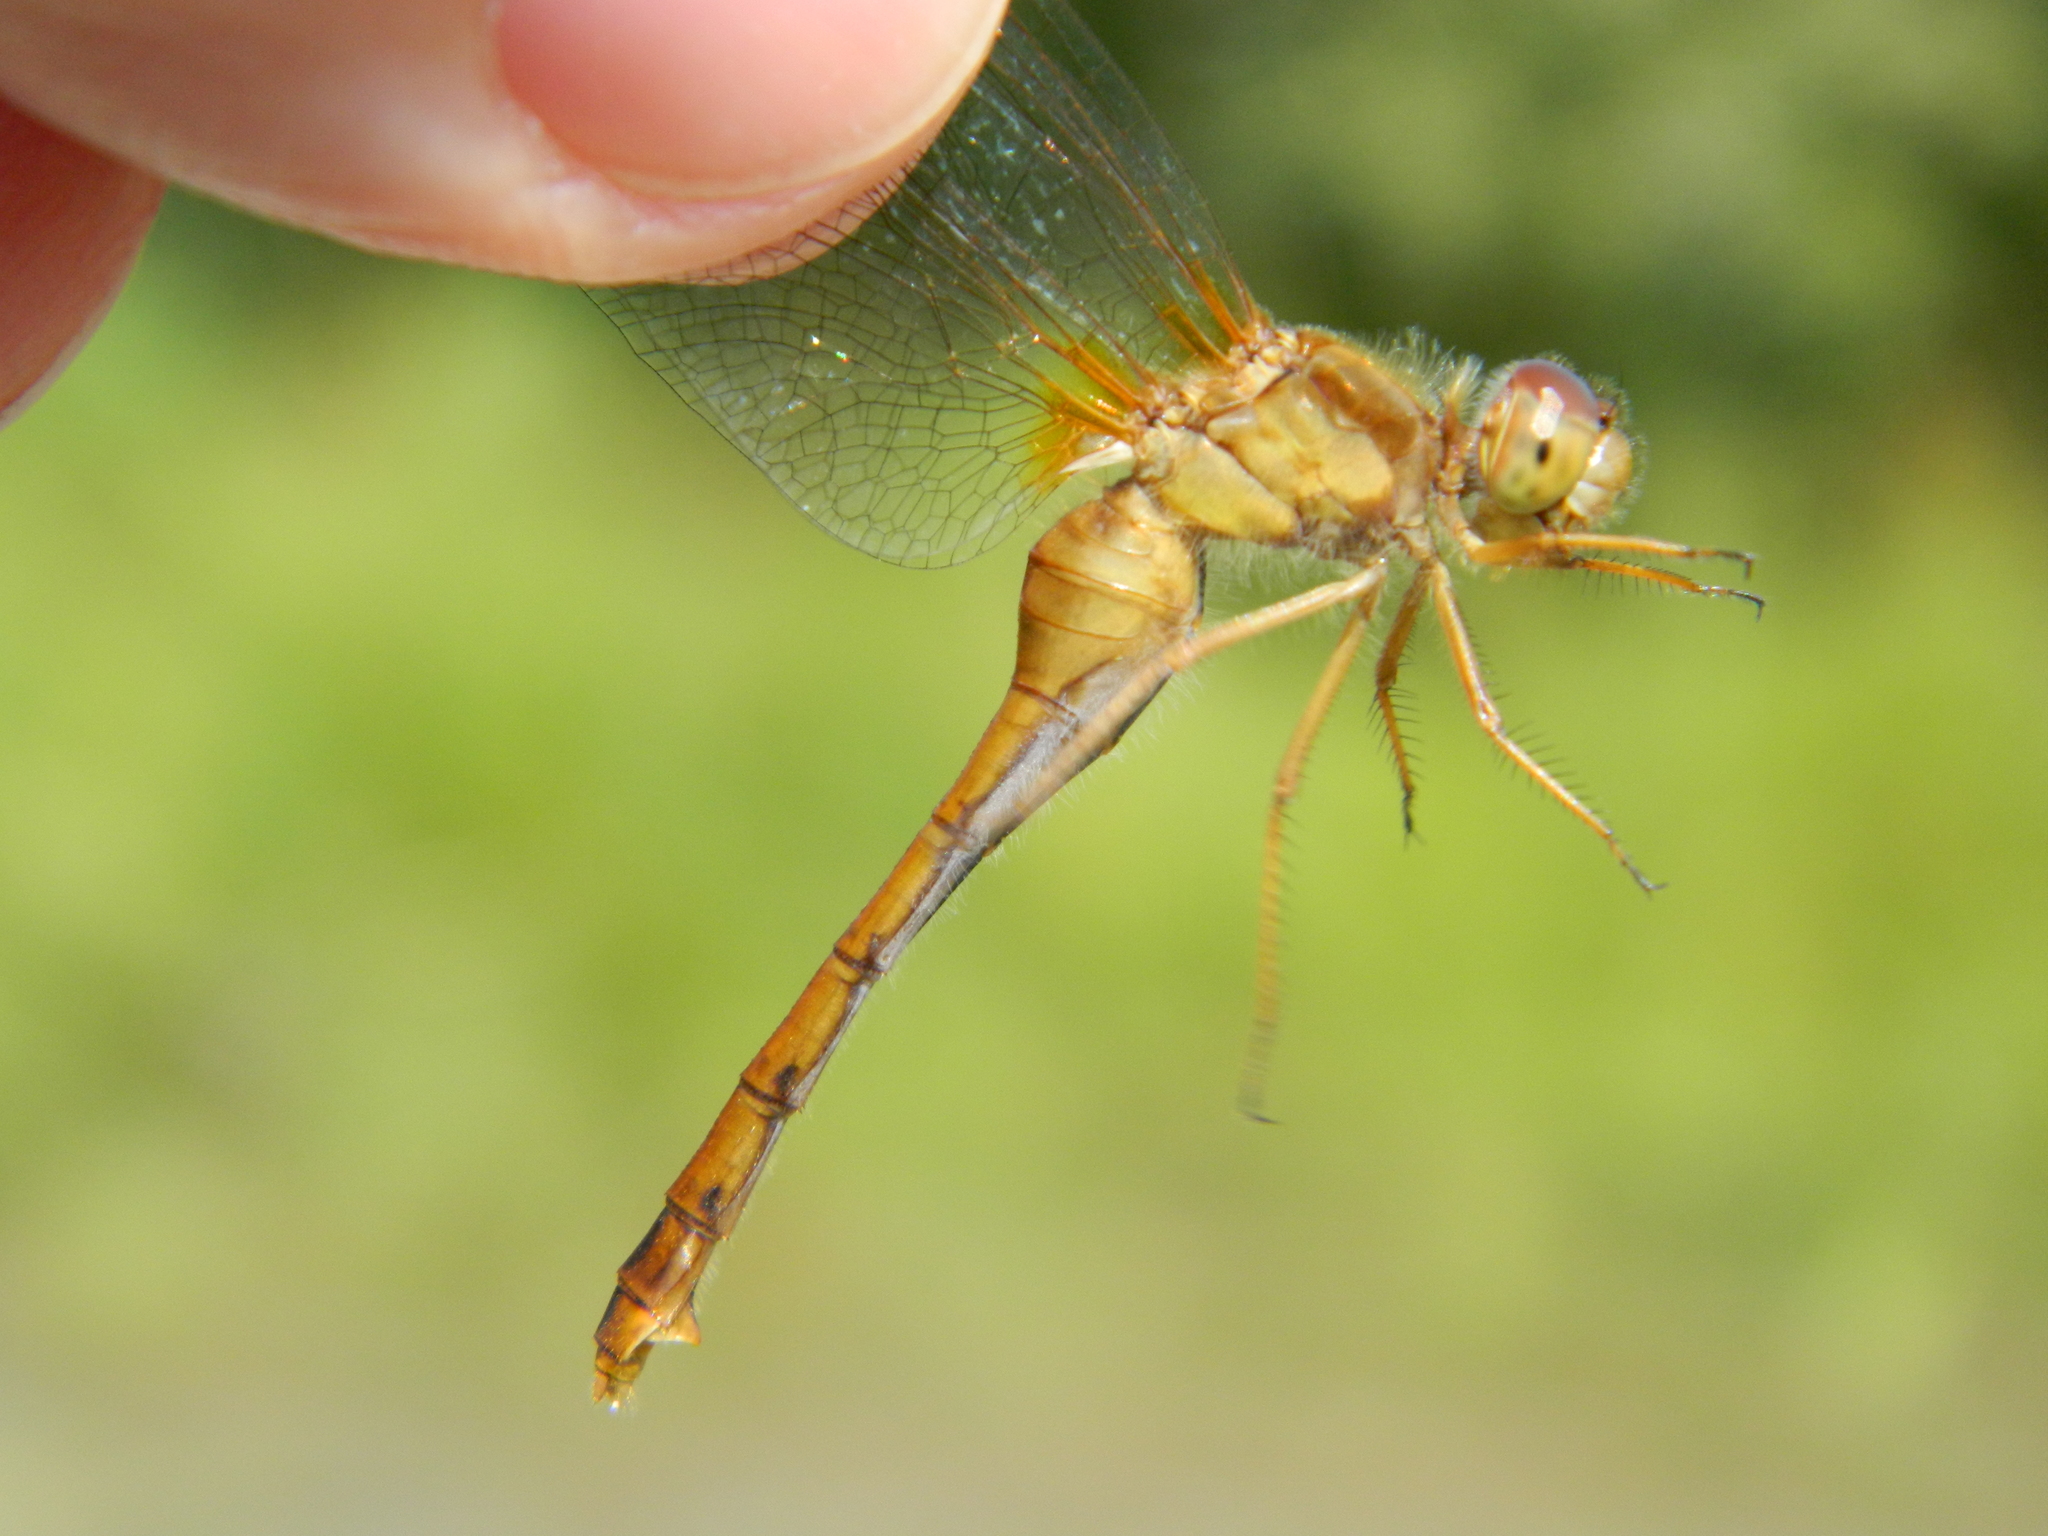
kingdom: Animalia
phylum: Arthropoda
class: Insecta
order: Odonata
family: Libellulidae
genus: Sympetrum
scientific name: Sympetrum vicinum
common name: Autumn meadowhawk
